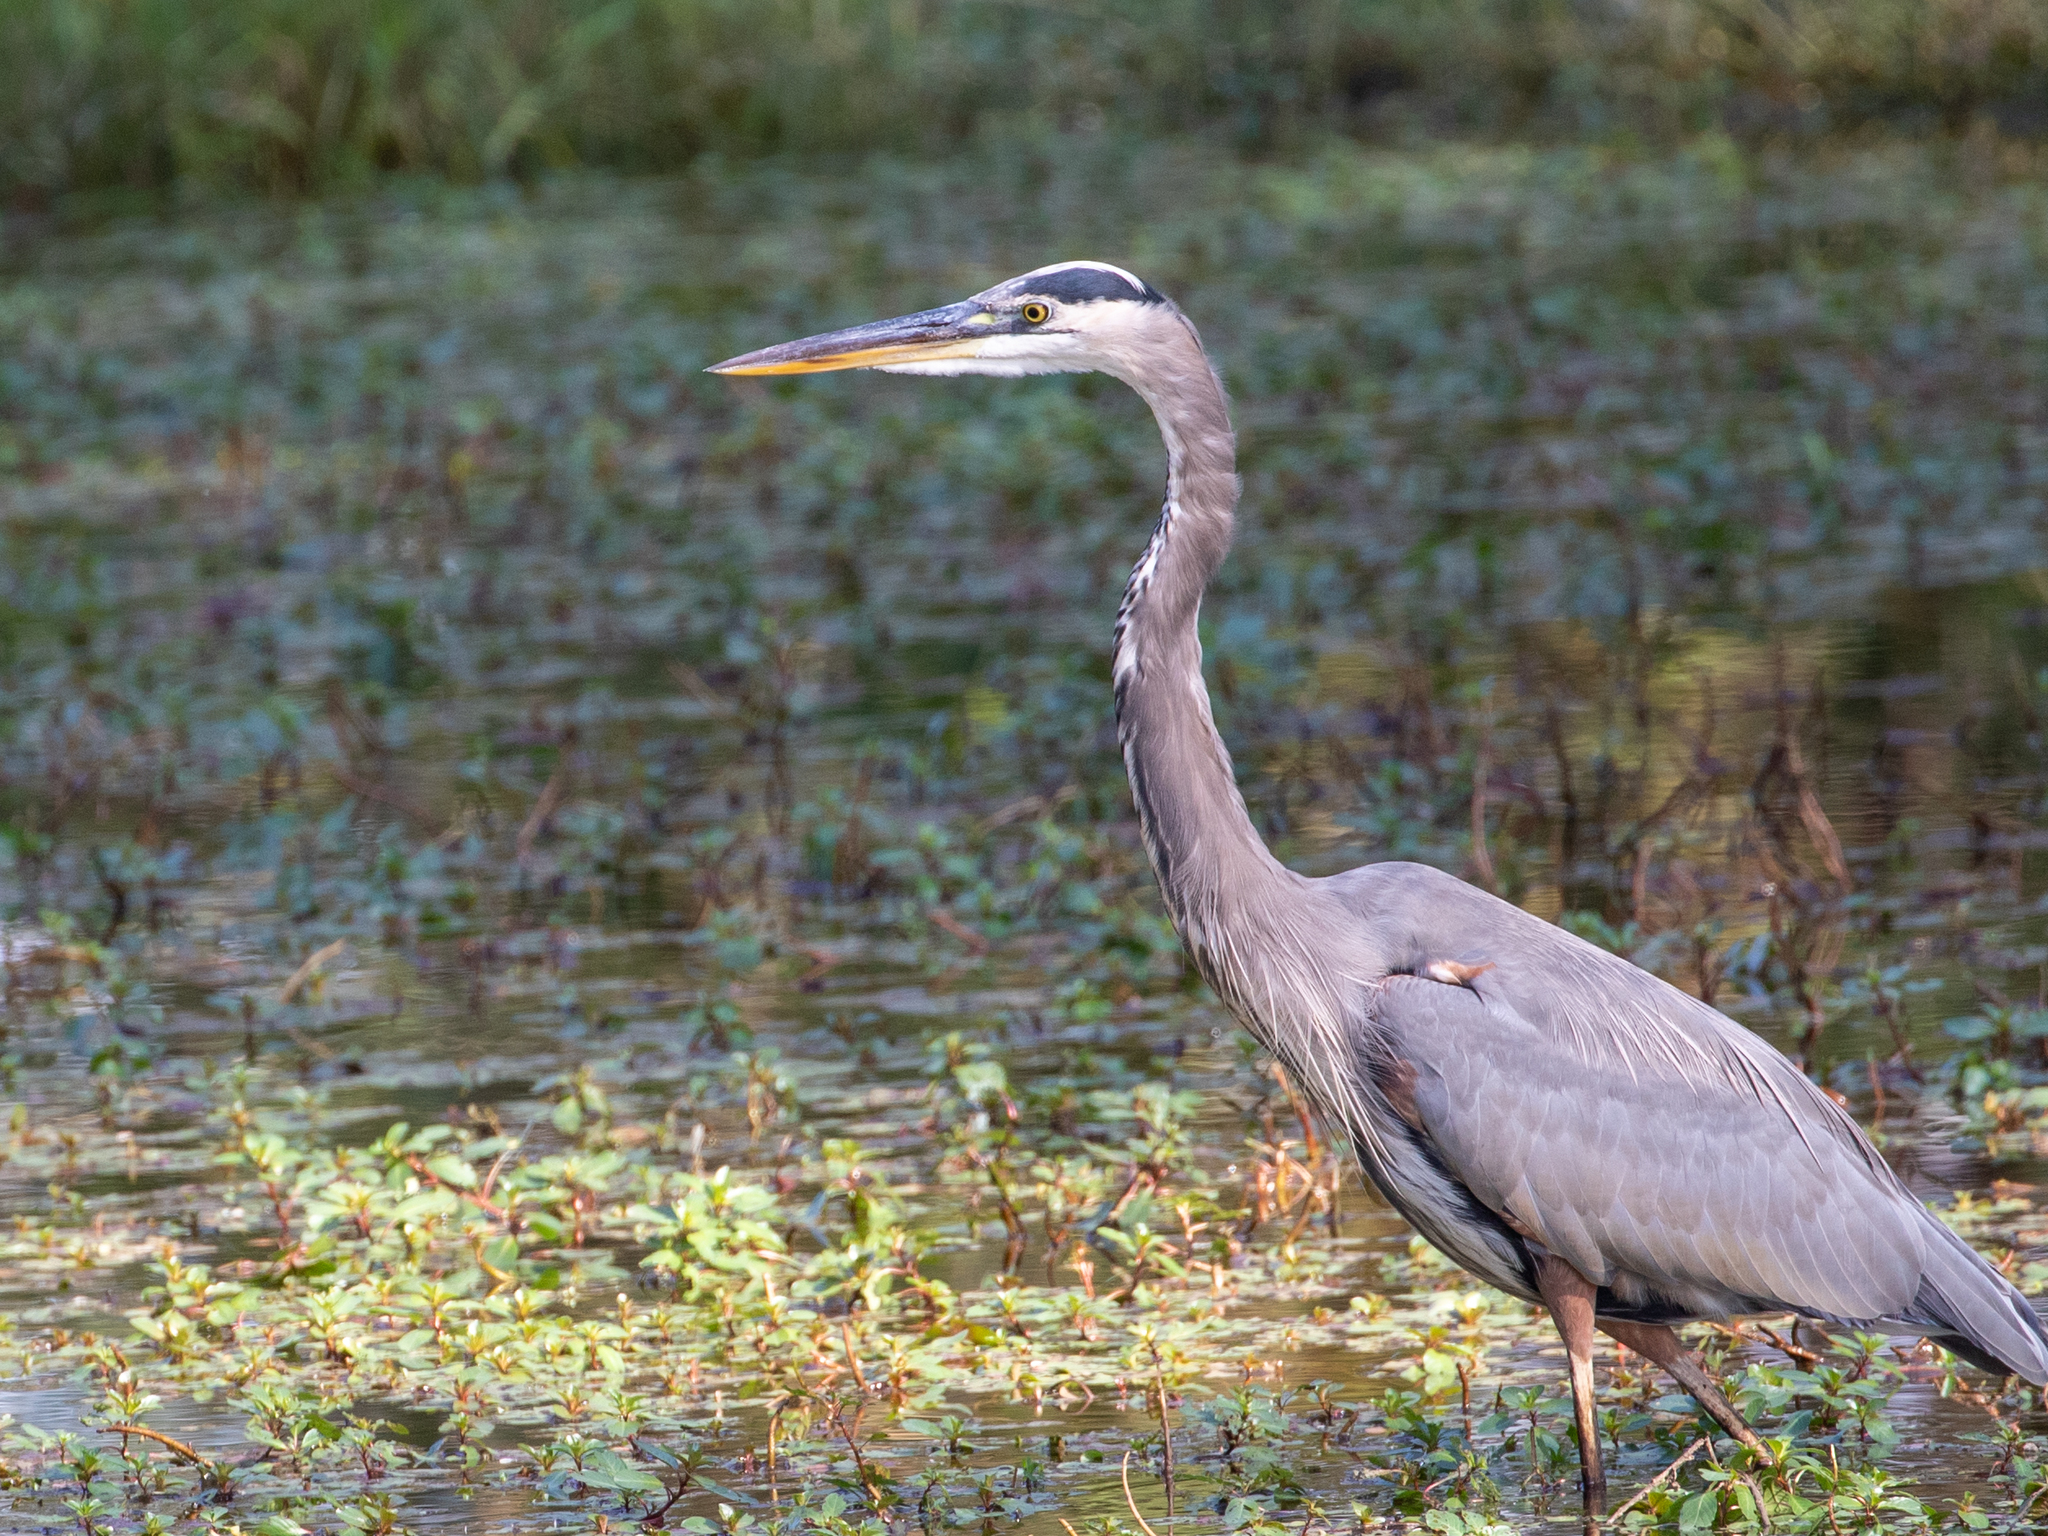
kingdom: Animalia
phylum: Chordata
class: Aves
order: Pelecaniformes
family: Ardeidae
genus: Ardea
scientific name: Ardea herodias
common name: Great blue heron
